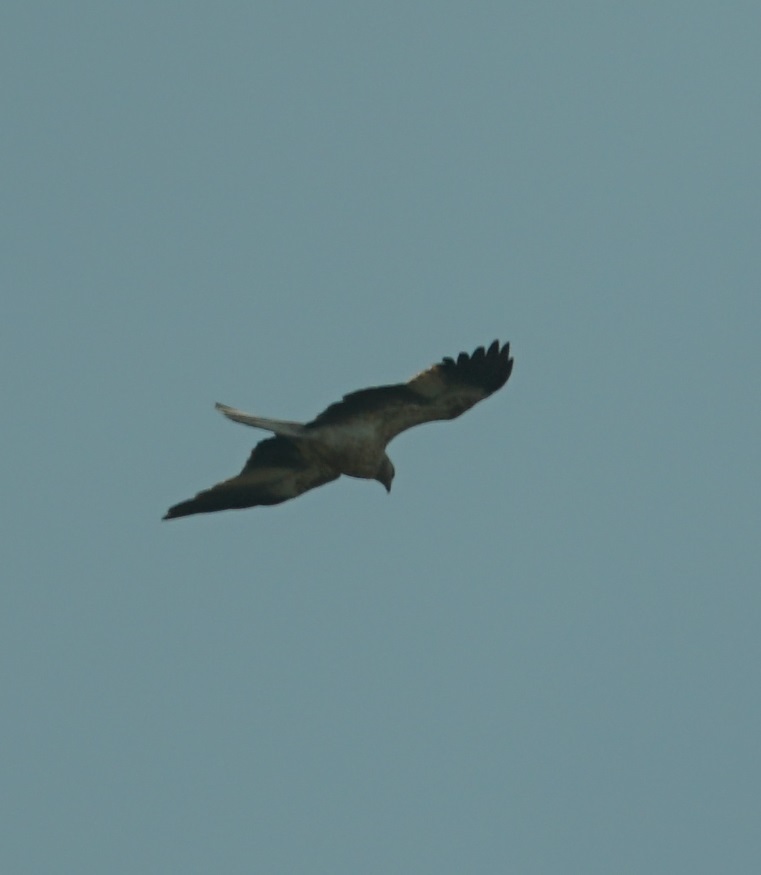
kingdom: Animalia
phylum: Chordata
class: Aves
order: Accipitriformes
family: Accipitridae
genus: Haliastur
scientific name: Haliastur sphenurus
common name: Whistling kite
